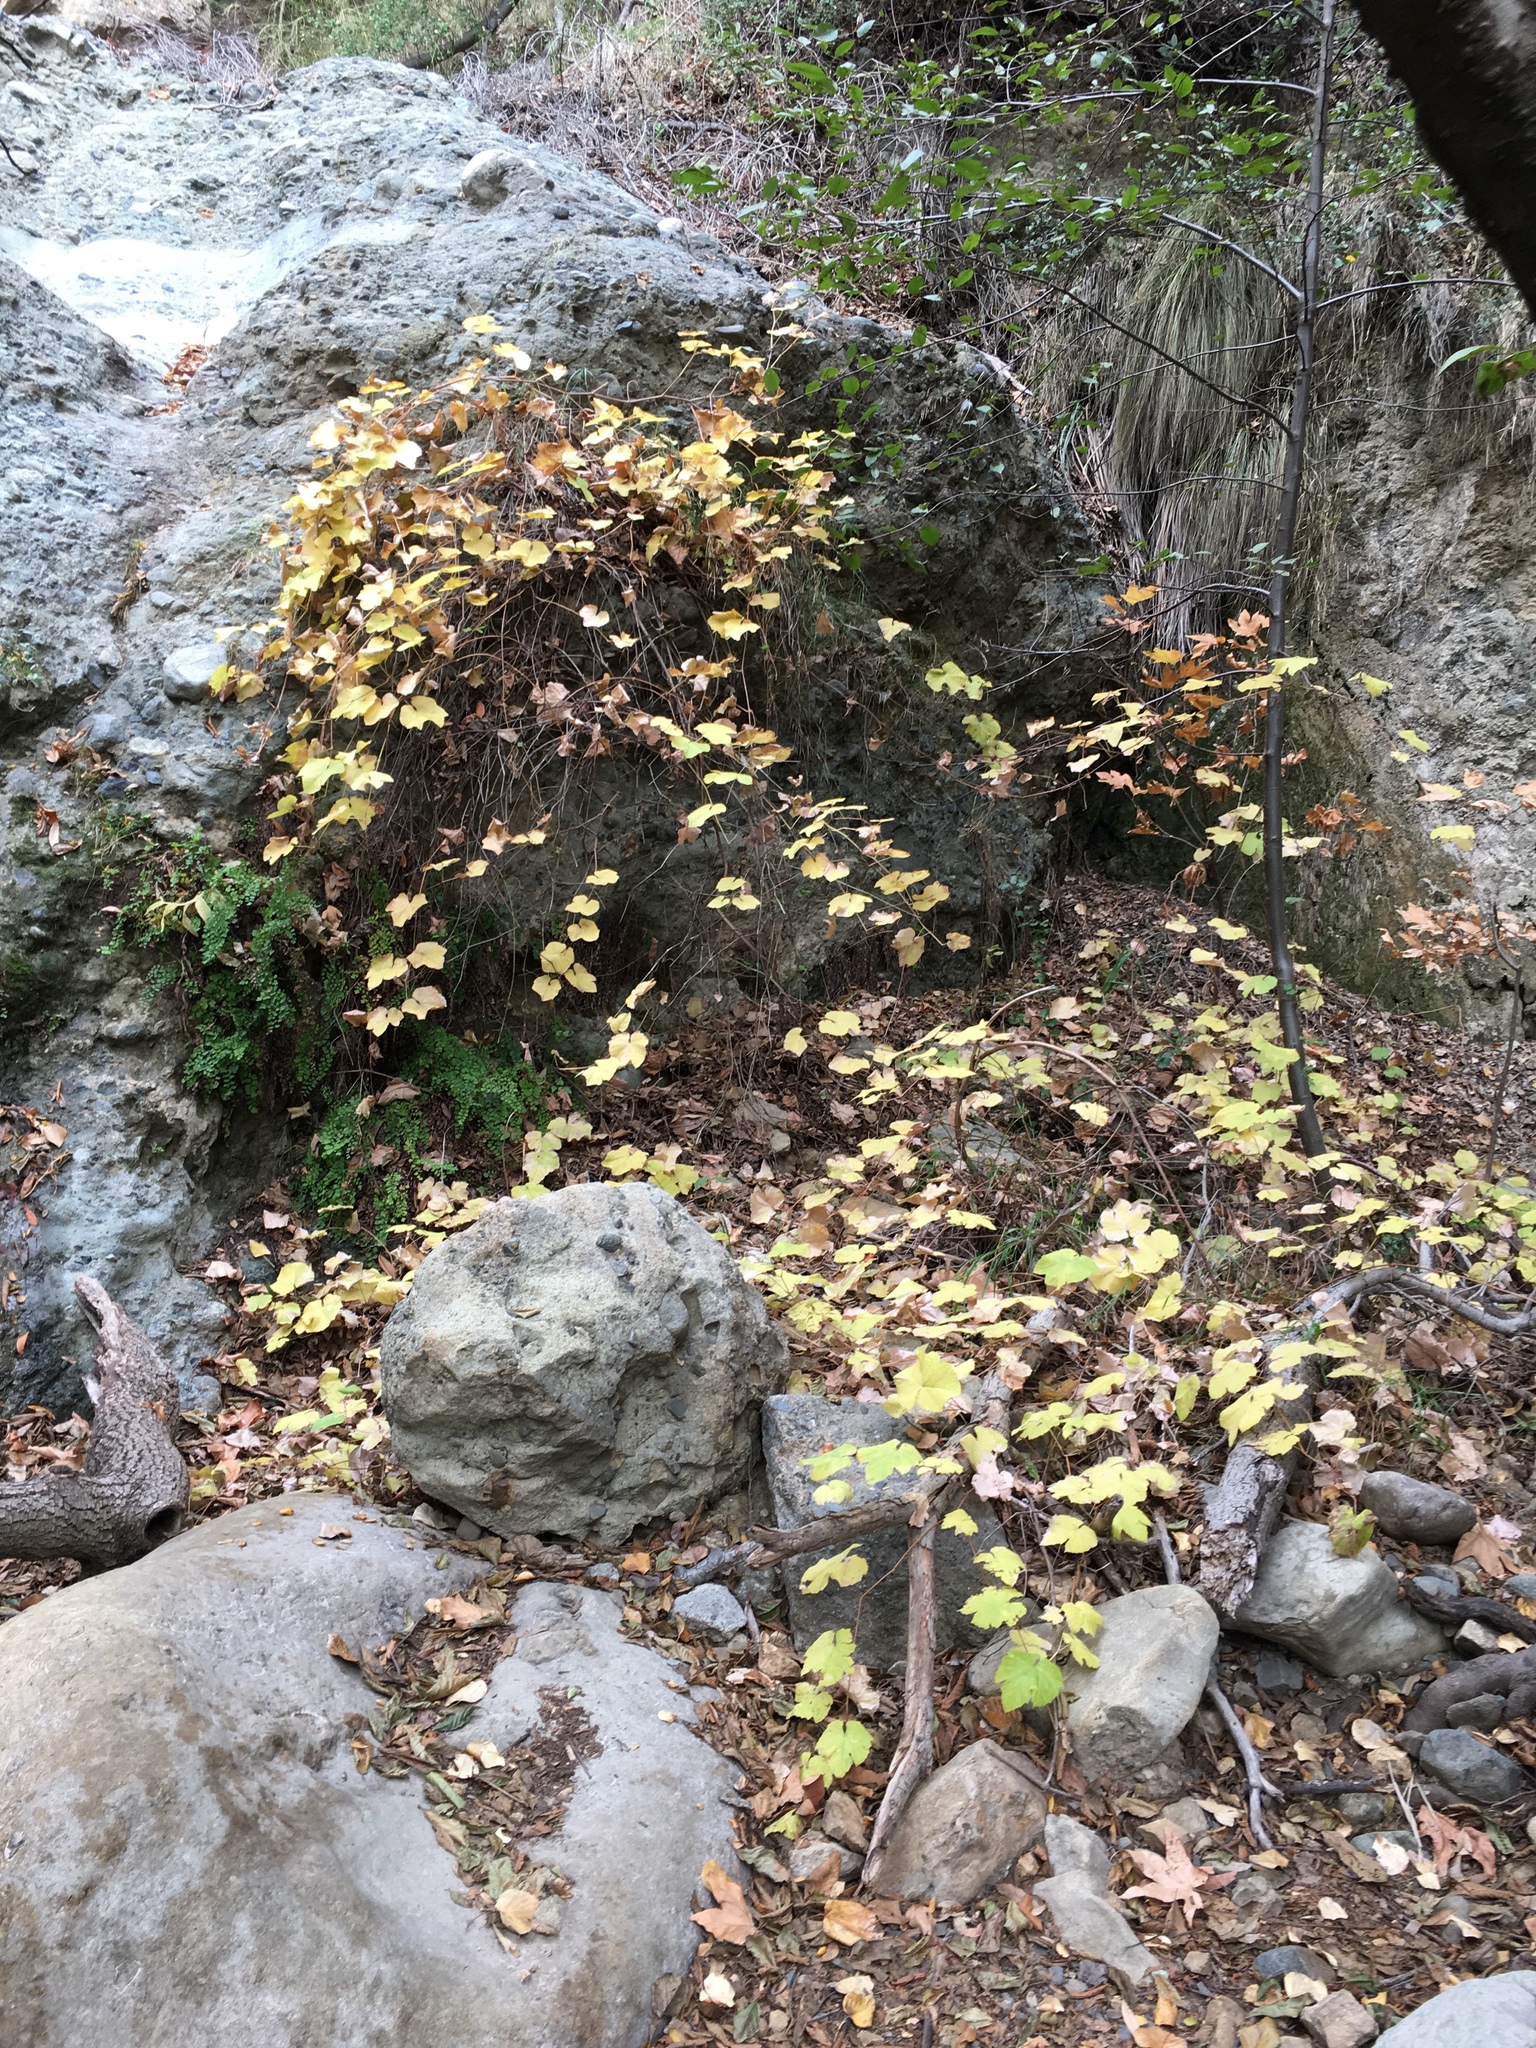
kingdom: Plantae
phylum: Tracheophyta
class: Magnoliopsida
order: Vitales
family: Vitaceae
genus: Vitis
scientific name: Vitis girdiana
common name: Desert wild grape
